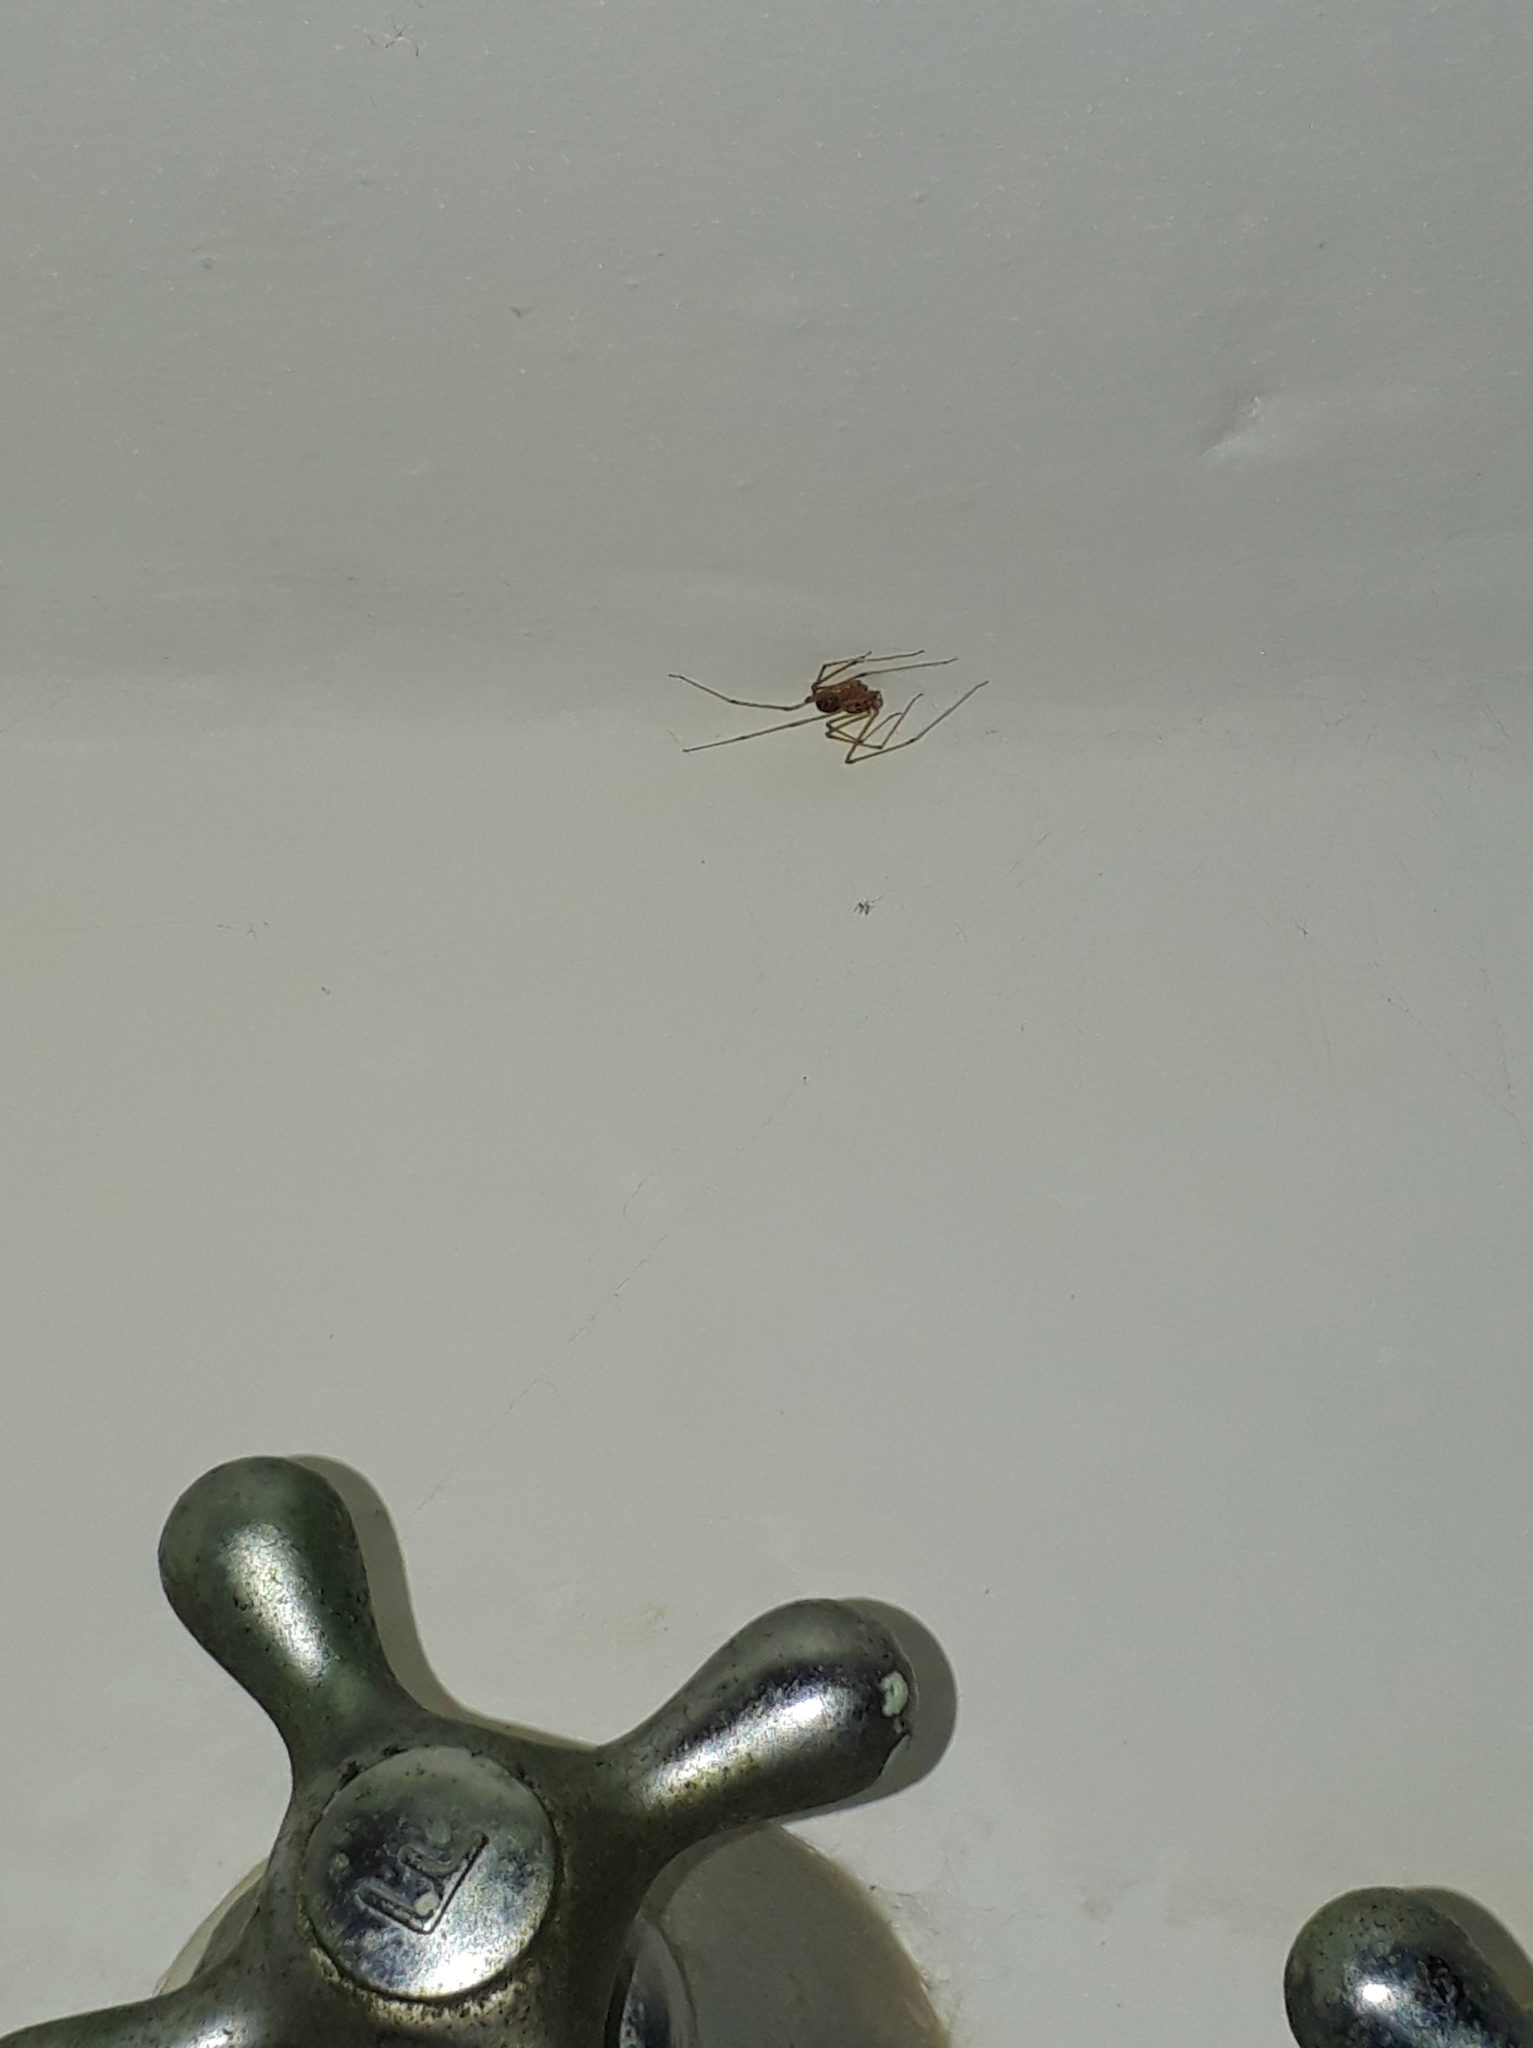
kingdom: Animalia
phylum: Arthropoda
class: Arachnida
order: Araneae
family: Scytodidae
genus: Scytodes
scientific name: Scytodes univittata
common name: Spitting spider
